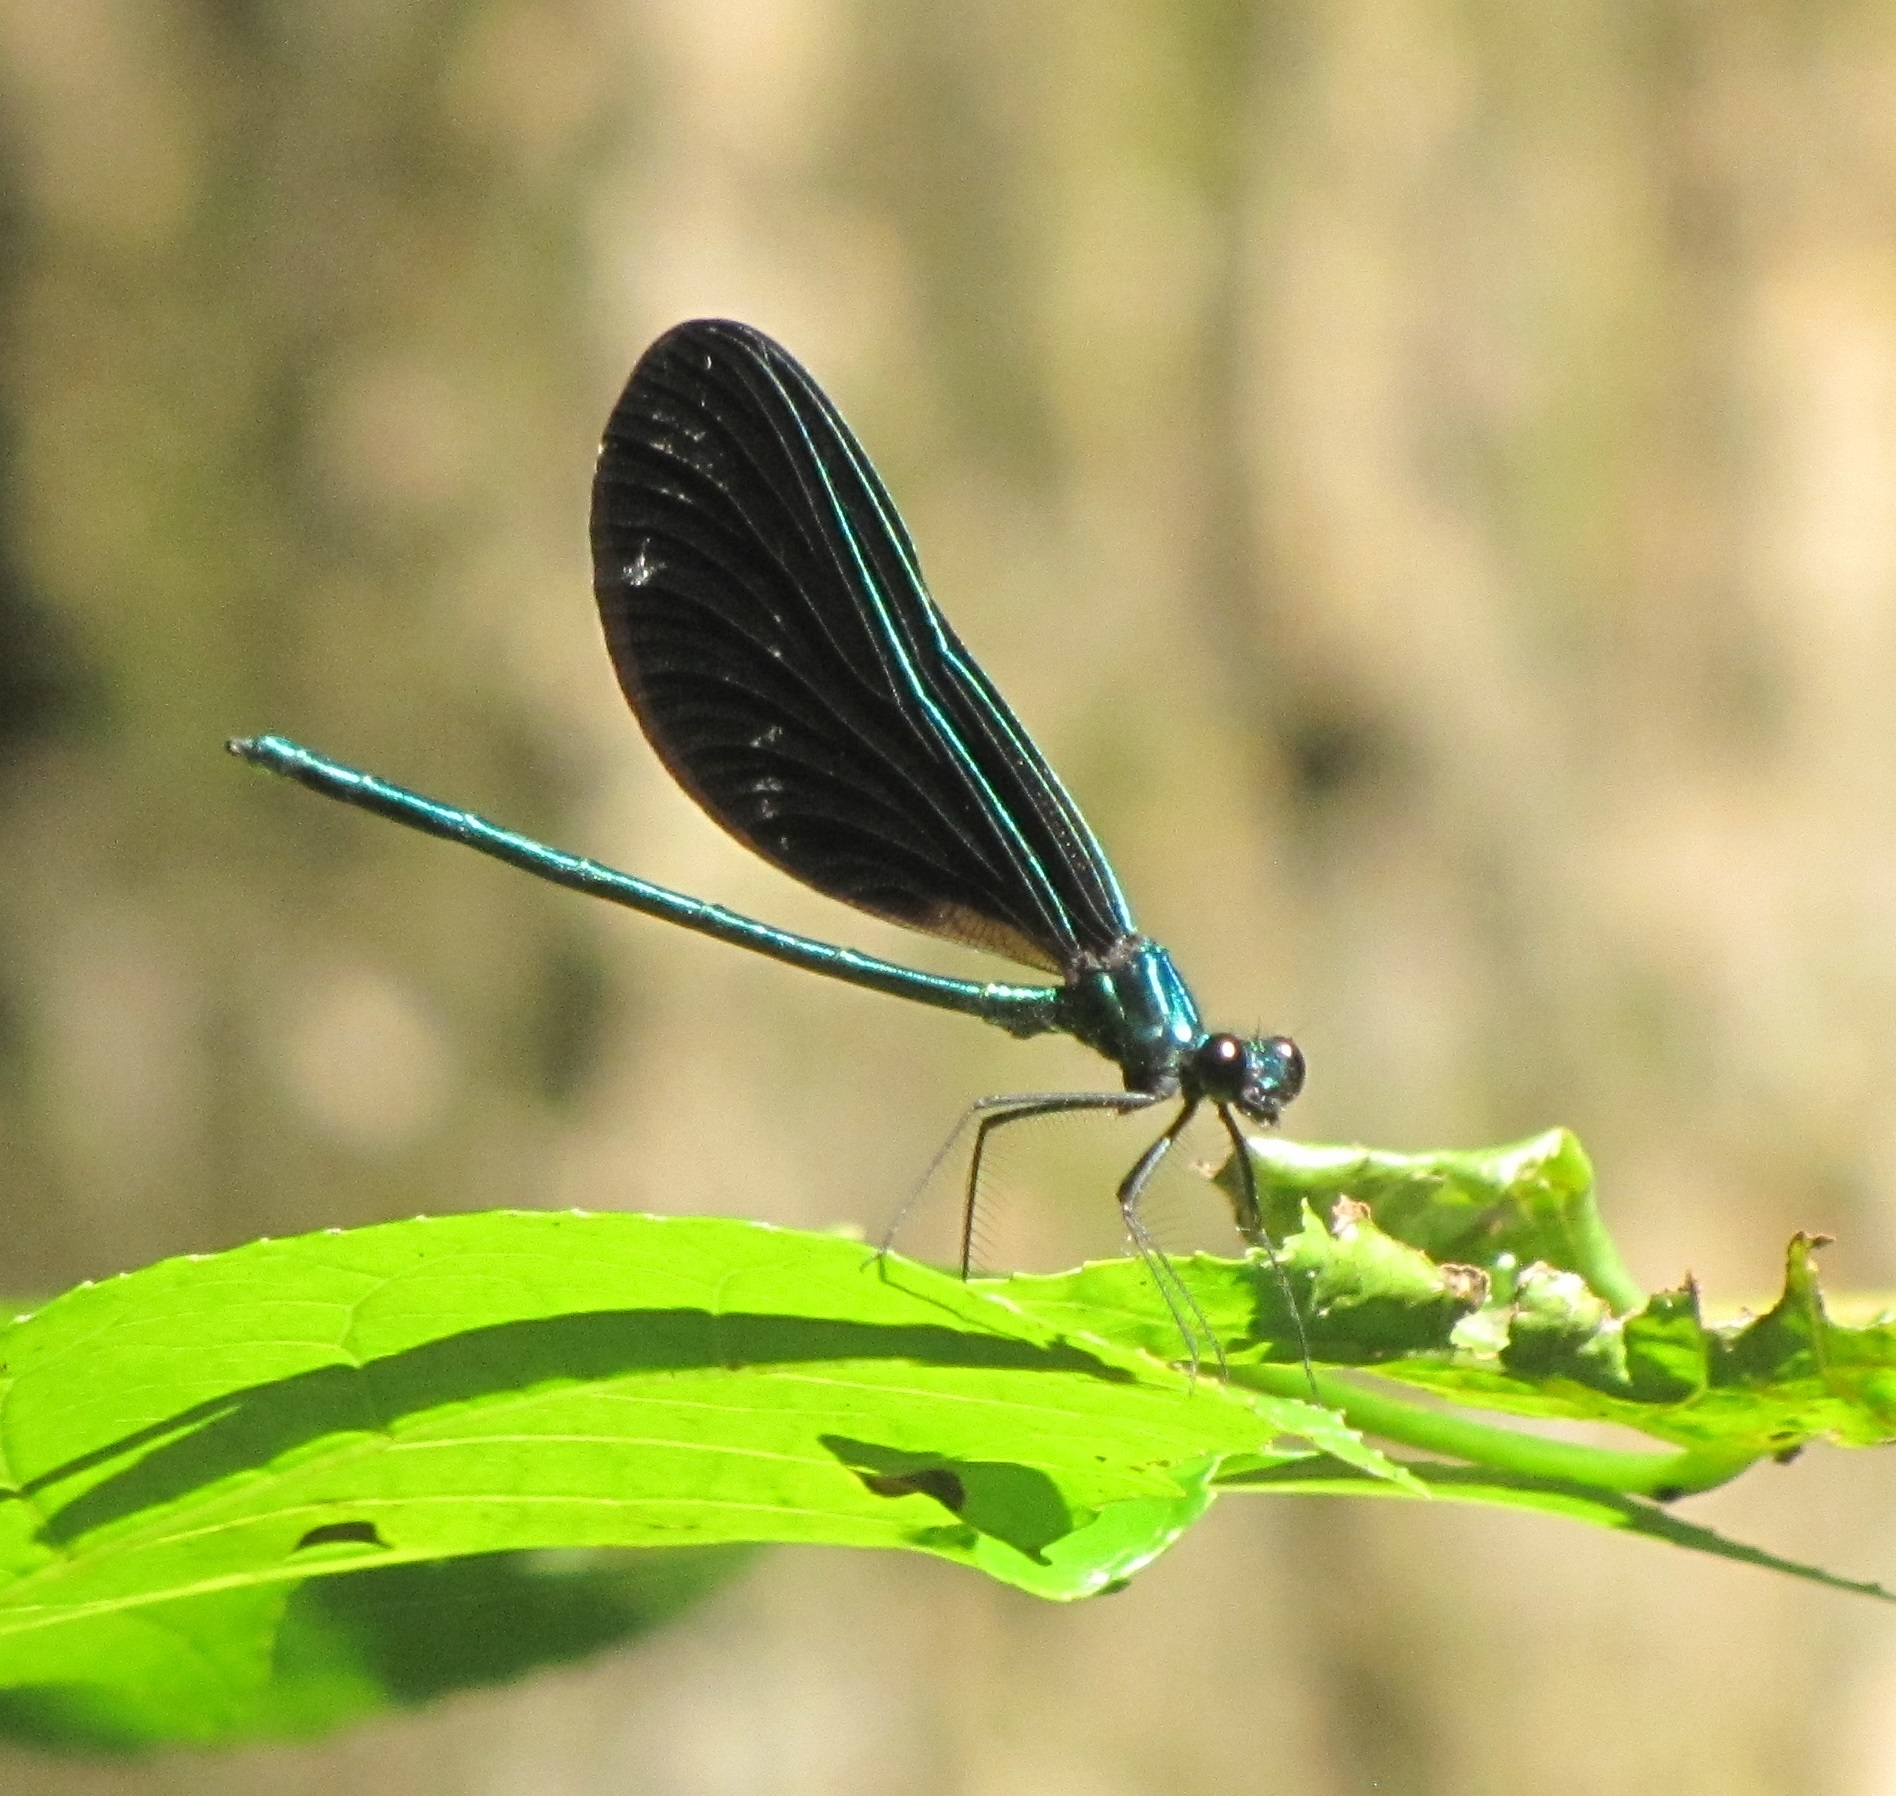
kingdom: Animalia
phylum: Arthropoda
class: Insecta
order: Odonata
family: Calopterygidae
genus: Calopteryx
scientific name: Calopteryx maculata
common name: Ebony jewelwing
